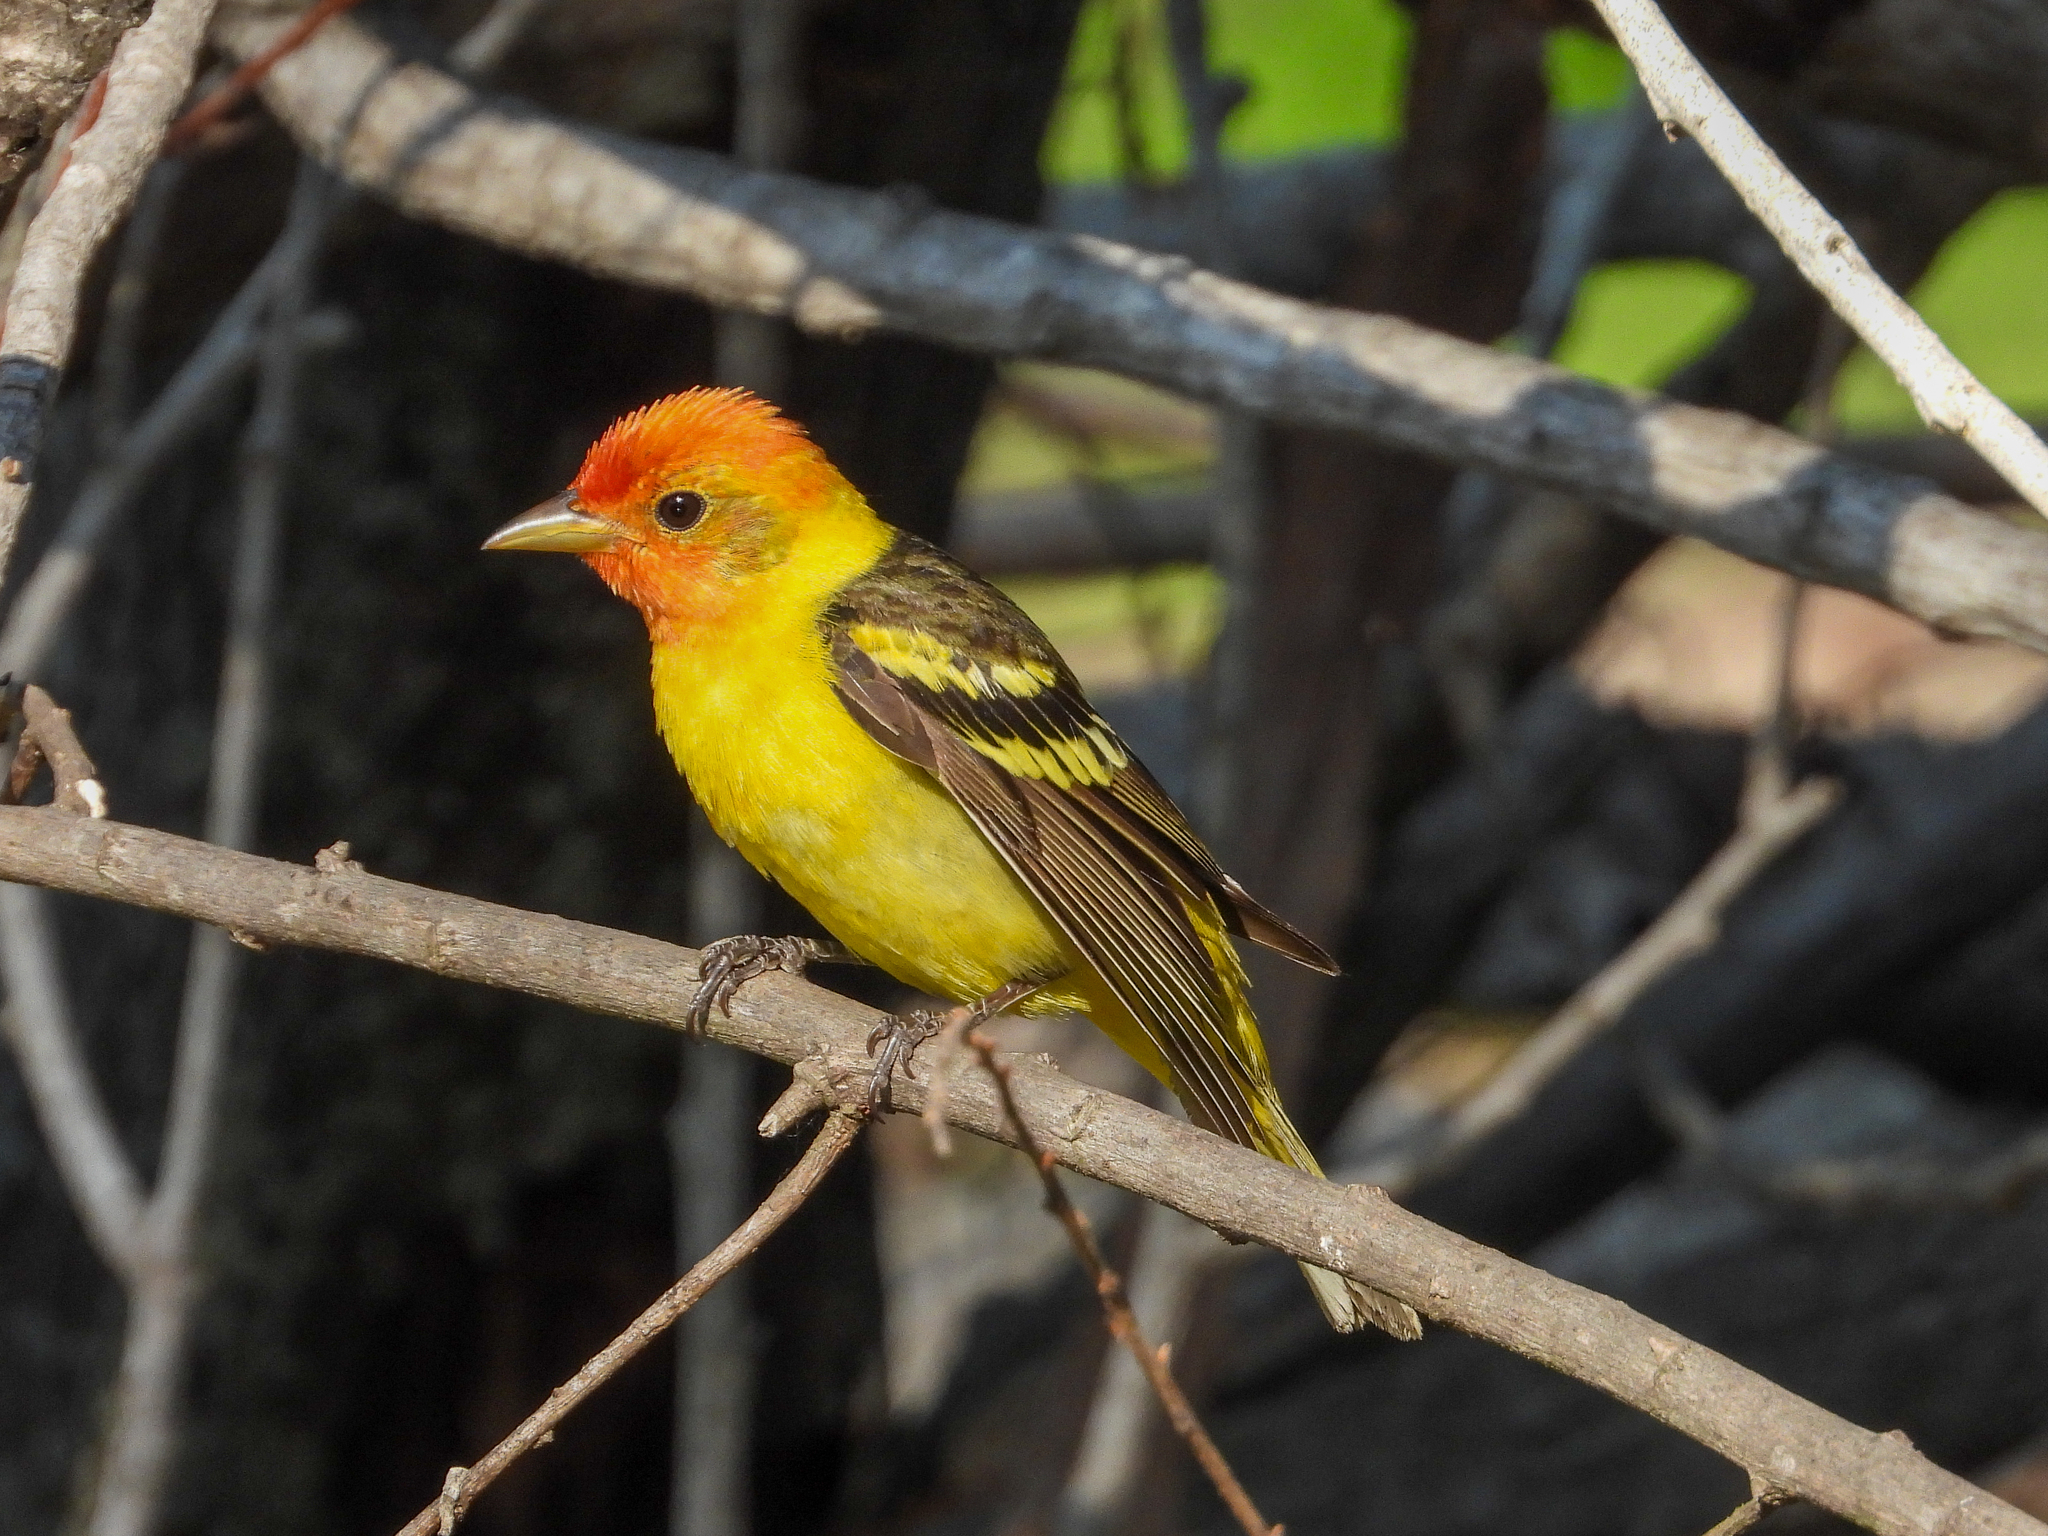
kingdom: Animalia
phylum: Chordata
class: Aves
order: Passeriformes
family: Cardinalidae
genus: Piranga
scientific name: Piranga ludoviciana
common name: Western tanager
